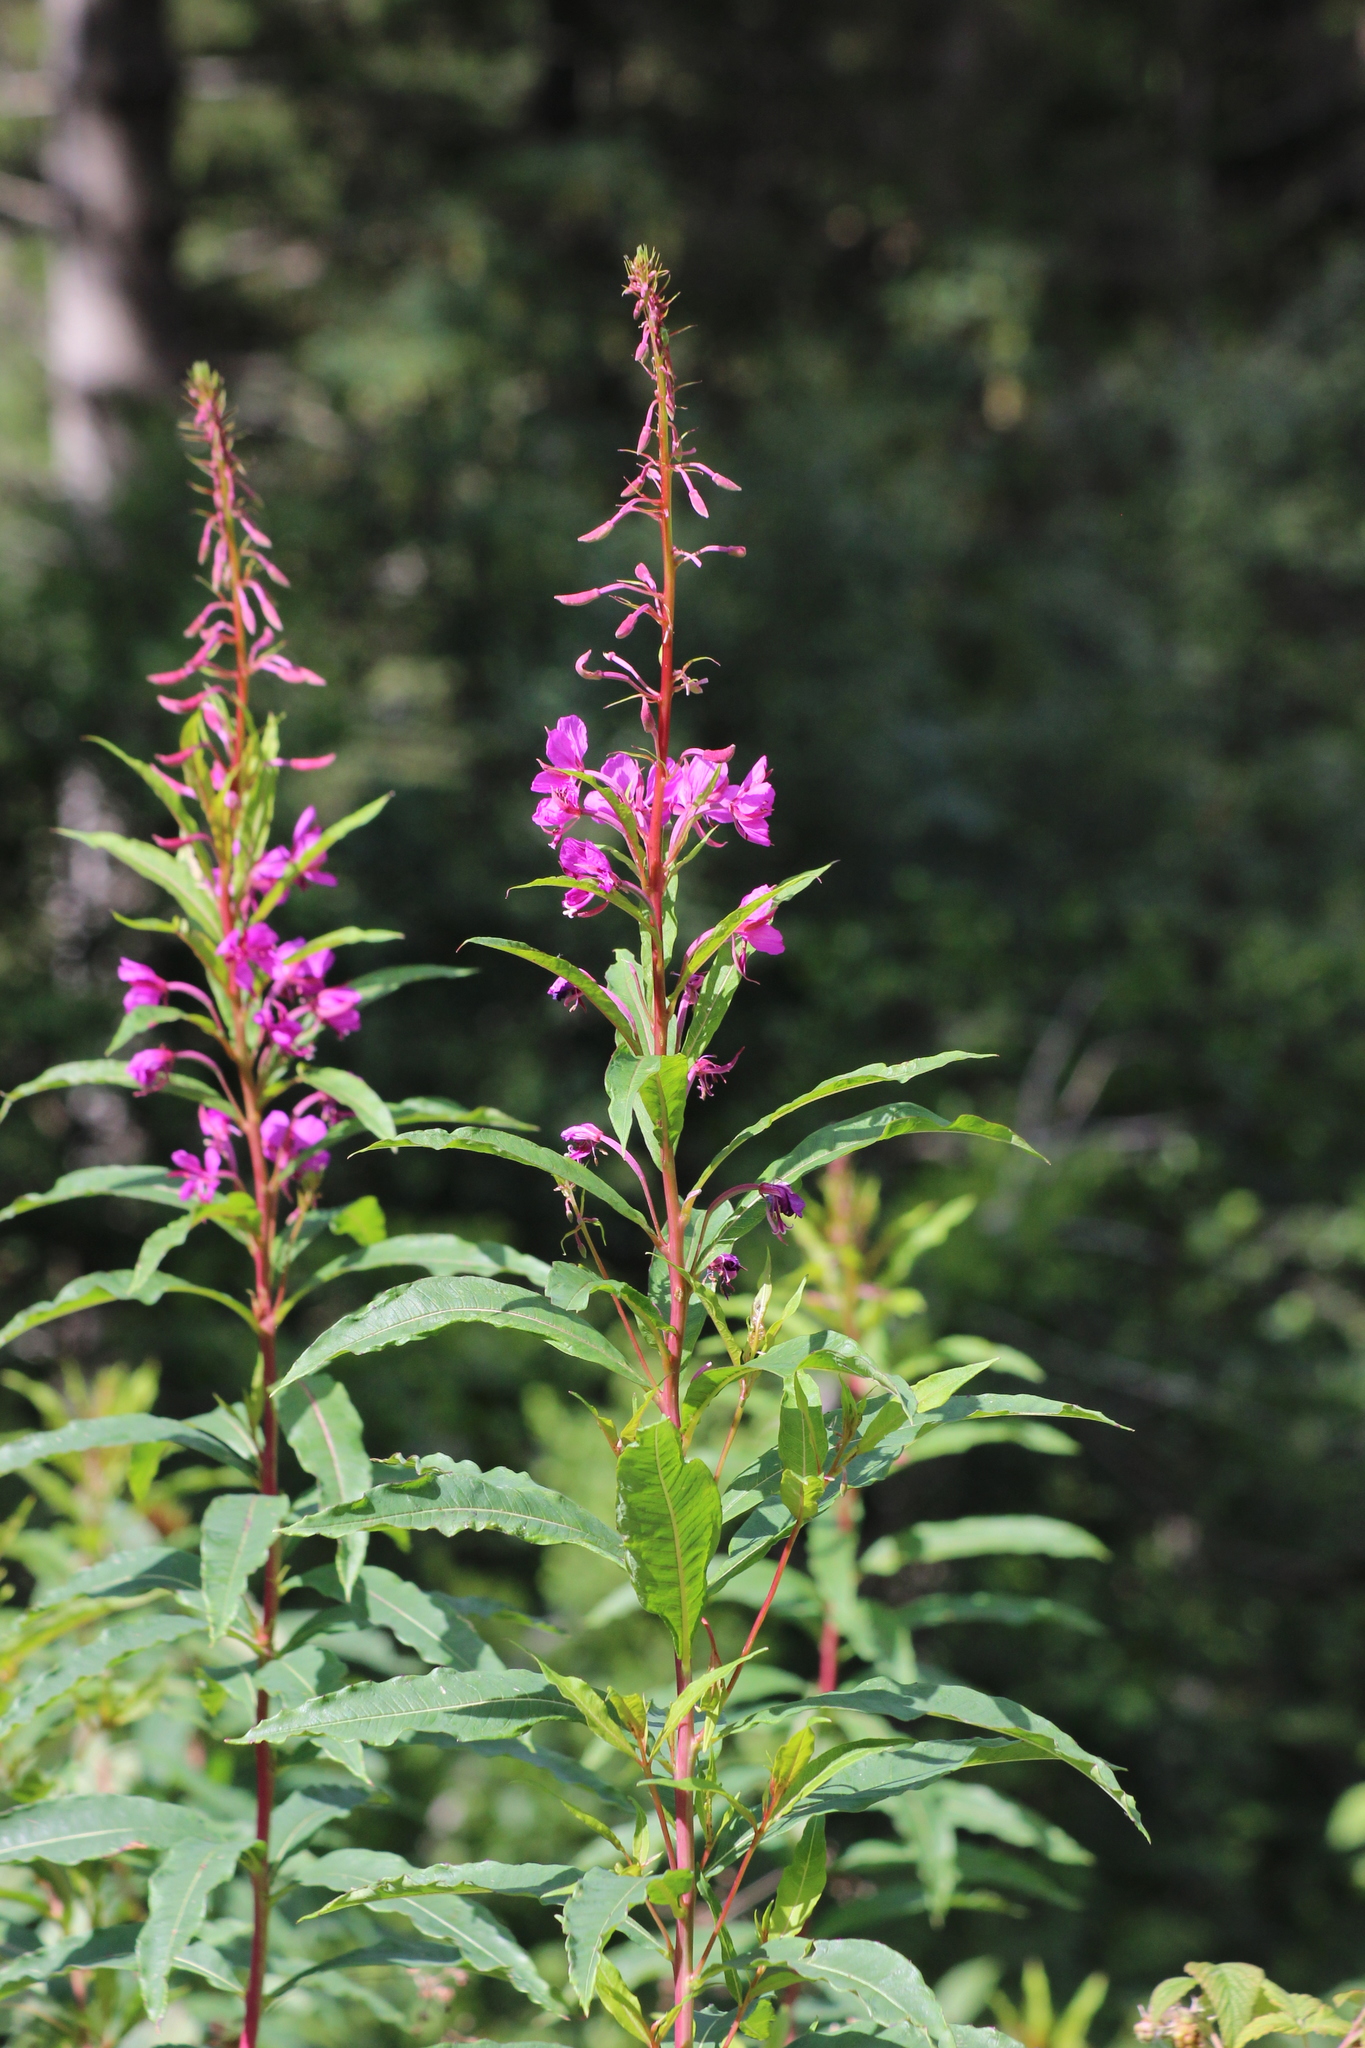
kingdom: Plantae
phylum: Tracheophyta
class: Magnoliopsida
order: Myrtales
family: Onagraceae
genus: Chamaenerion
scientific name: Chamaenerion angustifolium
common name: Fireweed
